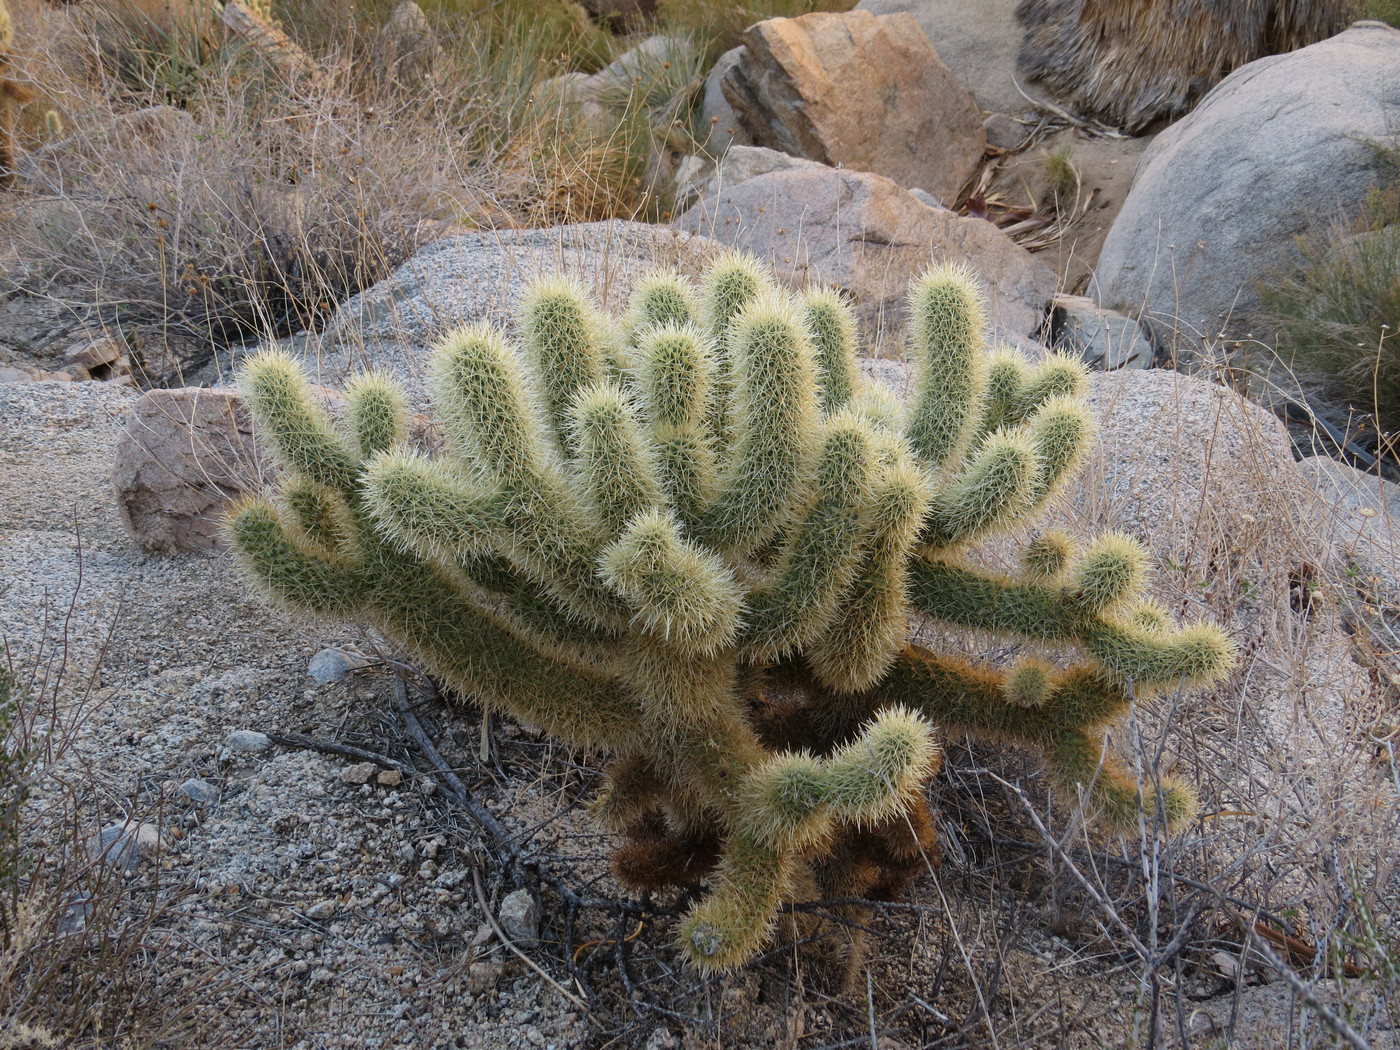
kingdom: Plantae
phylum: Tracheophyta
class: Magnoliopsida
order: Caryophyllales
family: Cactaceae
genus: Cylindropuntia
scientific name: Cylindropuntia fosbergii
